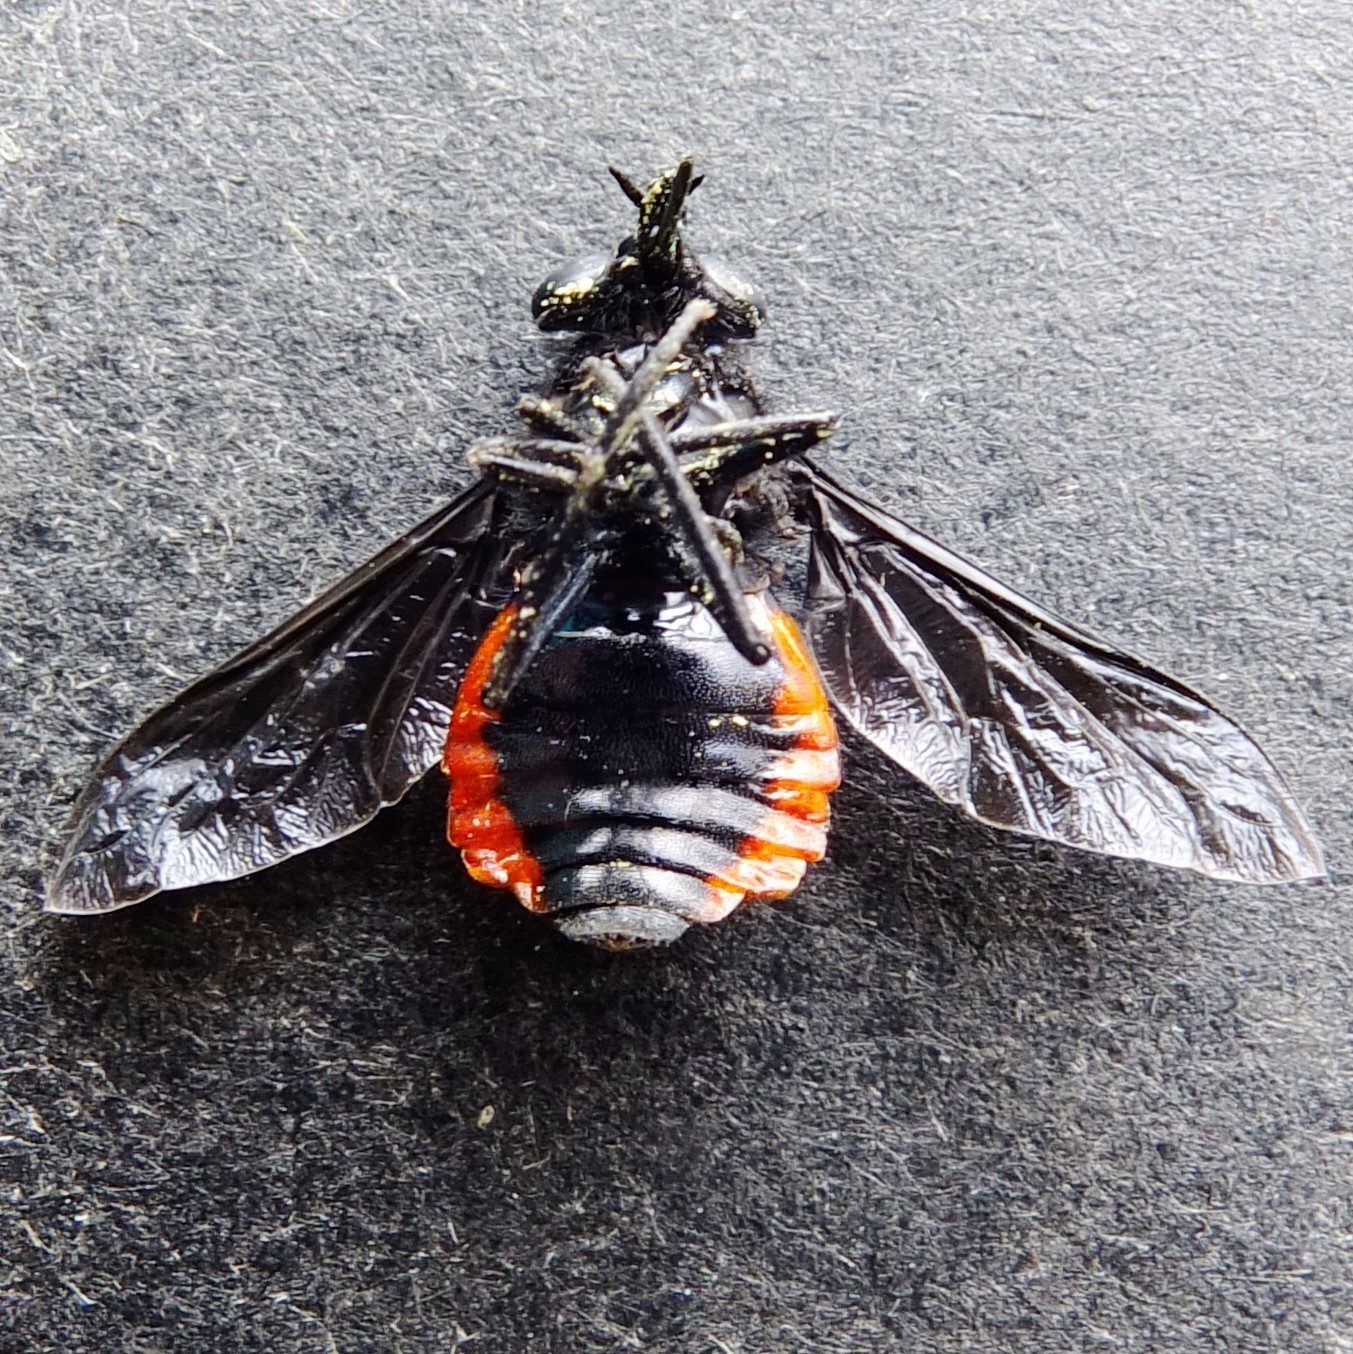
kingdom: Animalia
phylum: Arthropoda
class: Insecta
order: Diptera
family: Tabanidae
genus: Philoliche
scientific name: Philoliche rubramarginata
